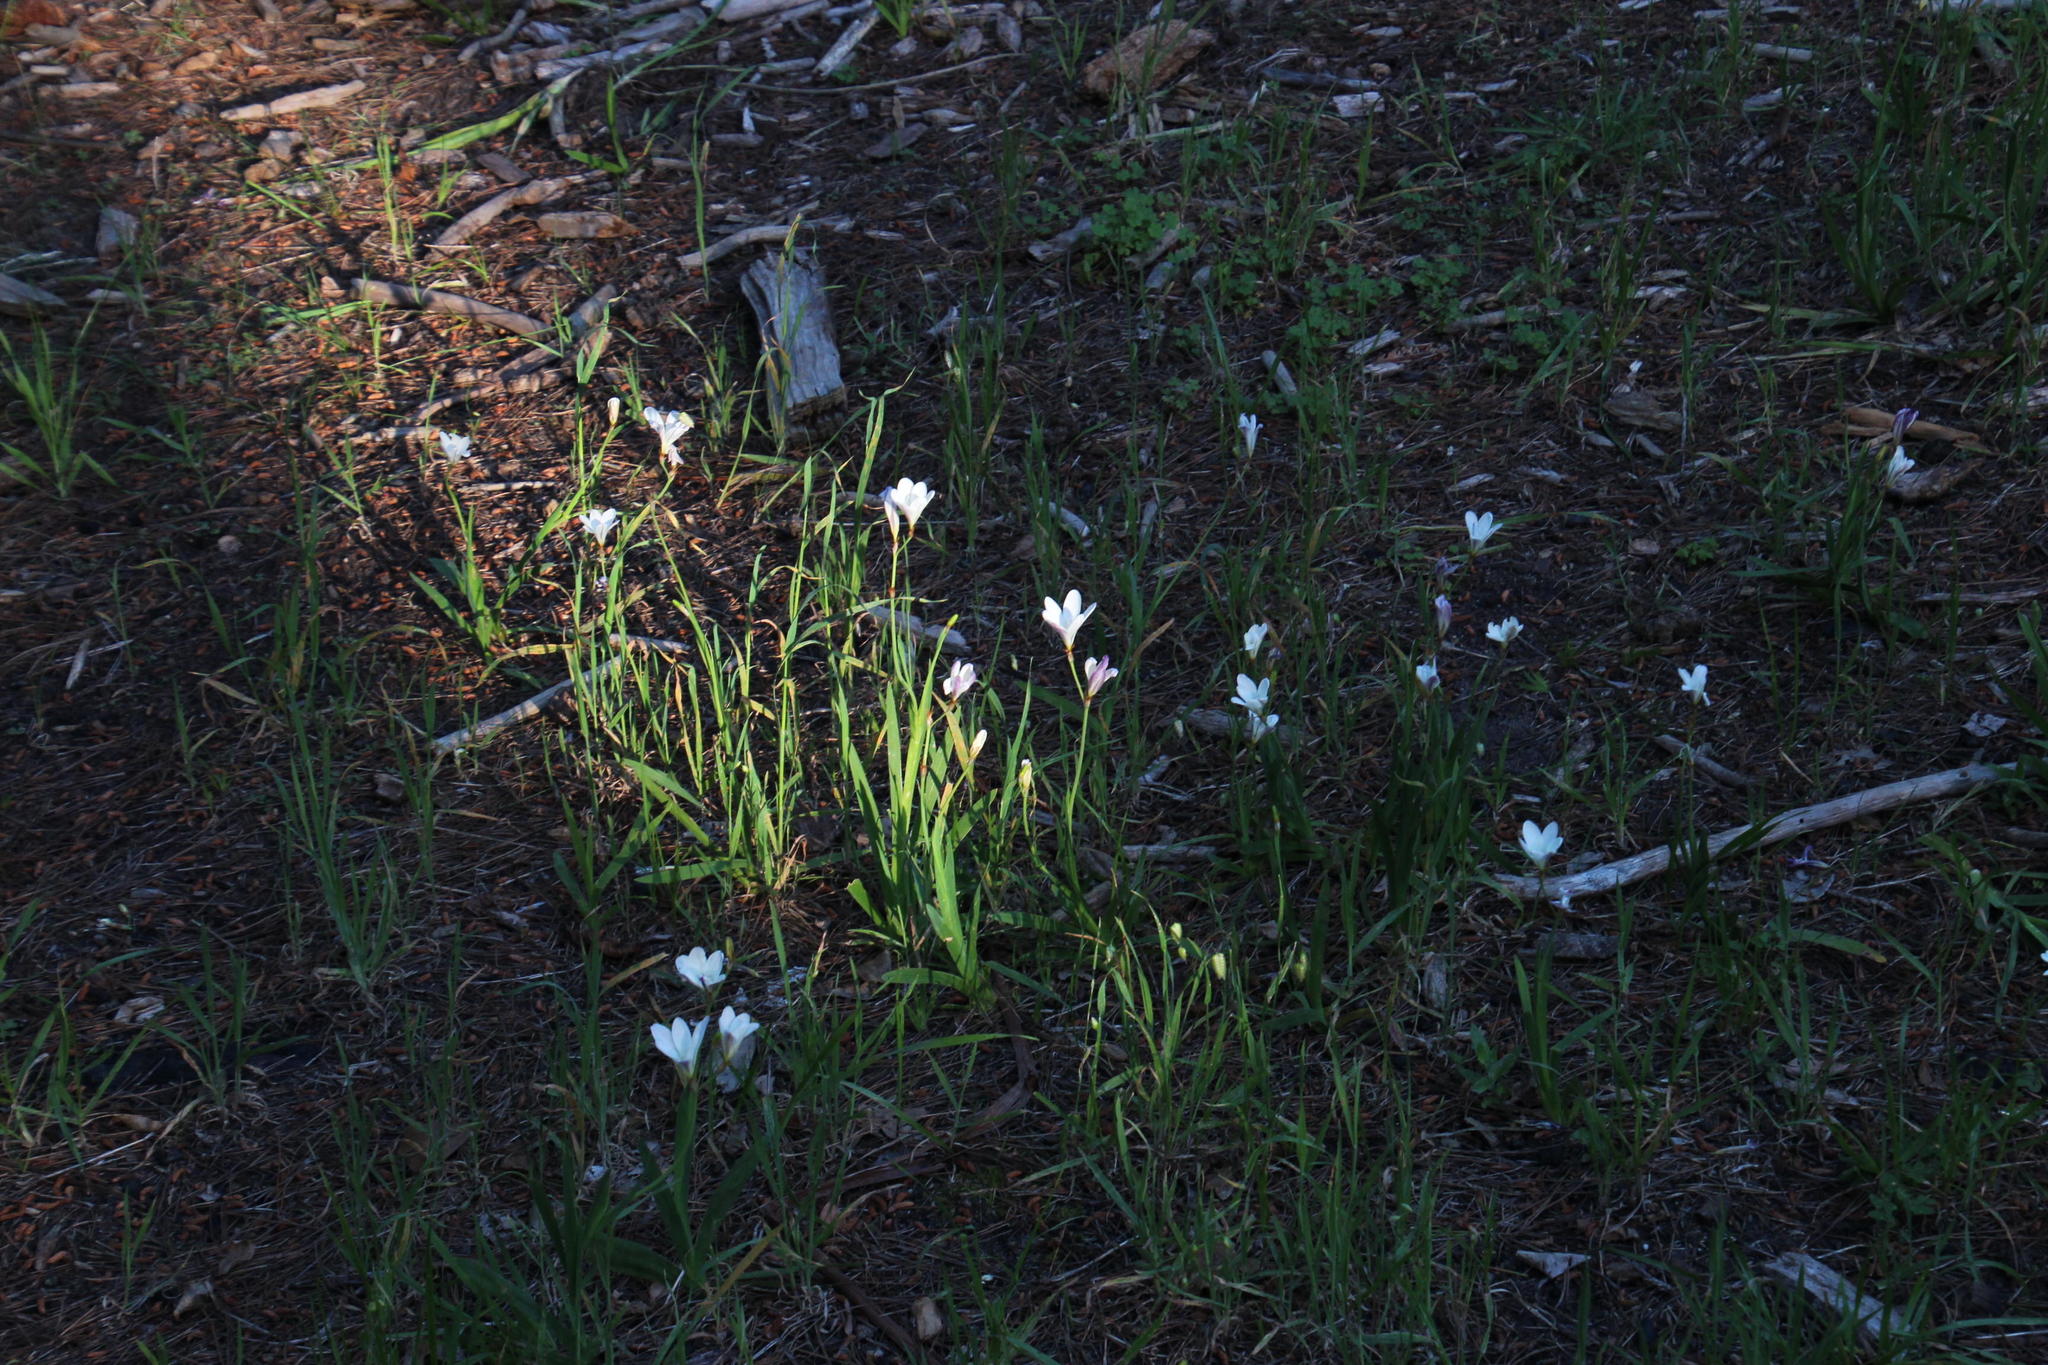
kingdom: Plantae
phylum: Tracheophyta
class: Liliopsida
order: Asparagales
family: Iridaceae
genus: Sparaxis
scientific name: Sparaxis bulbifera
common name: Harlequin-flower
